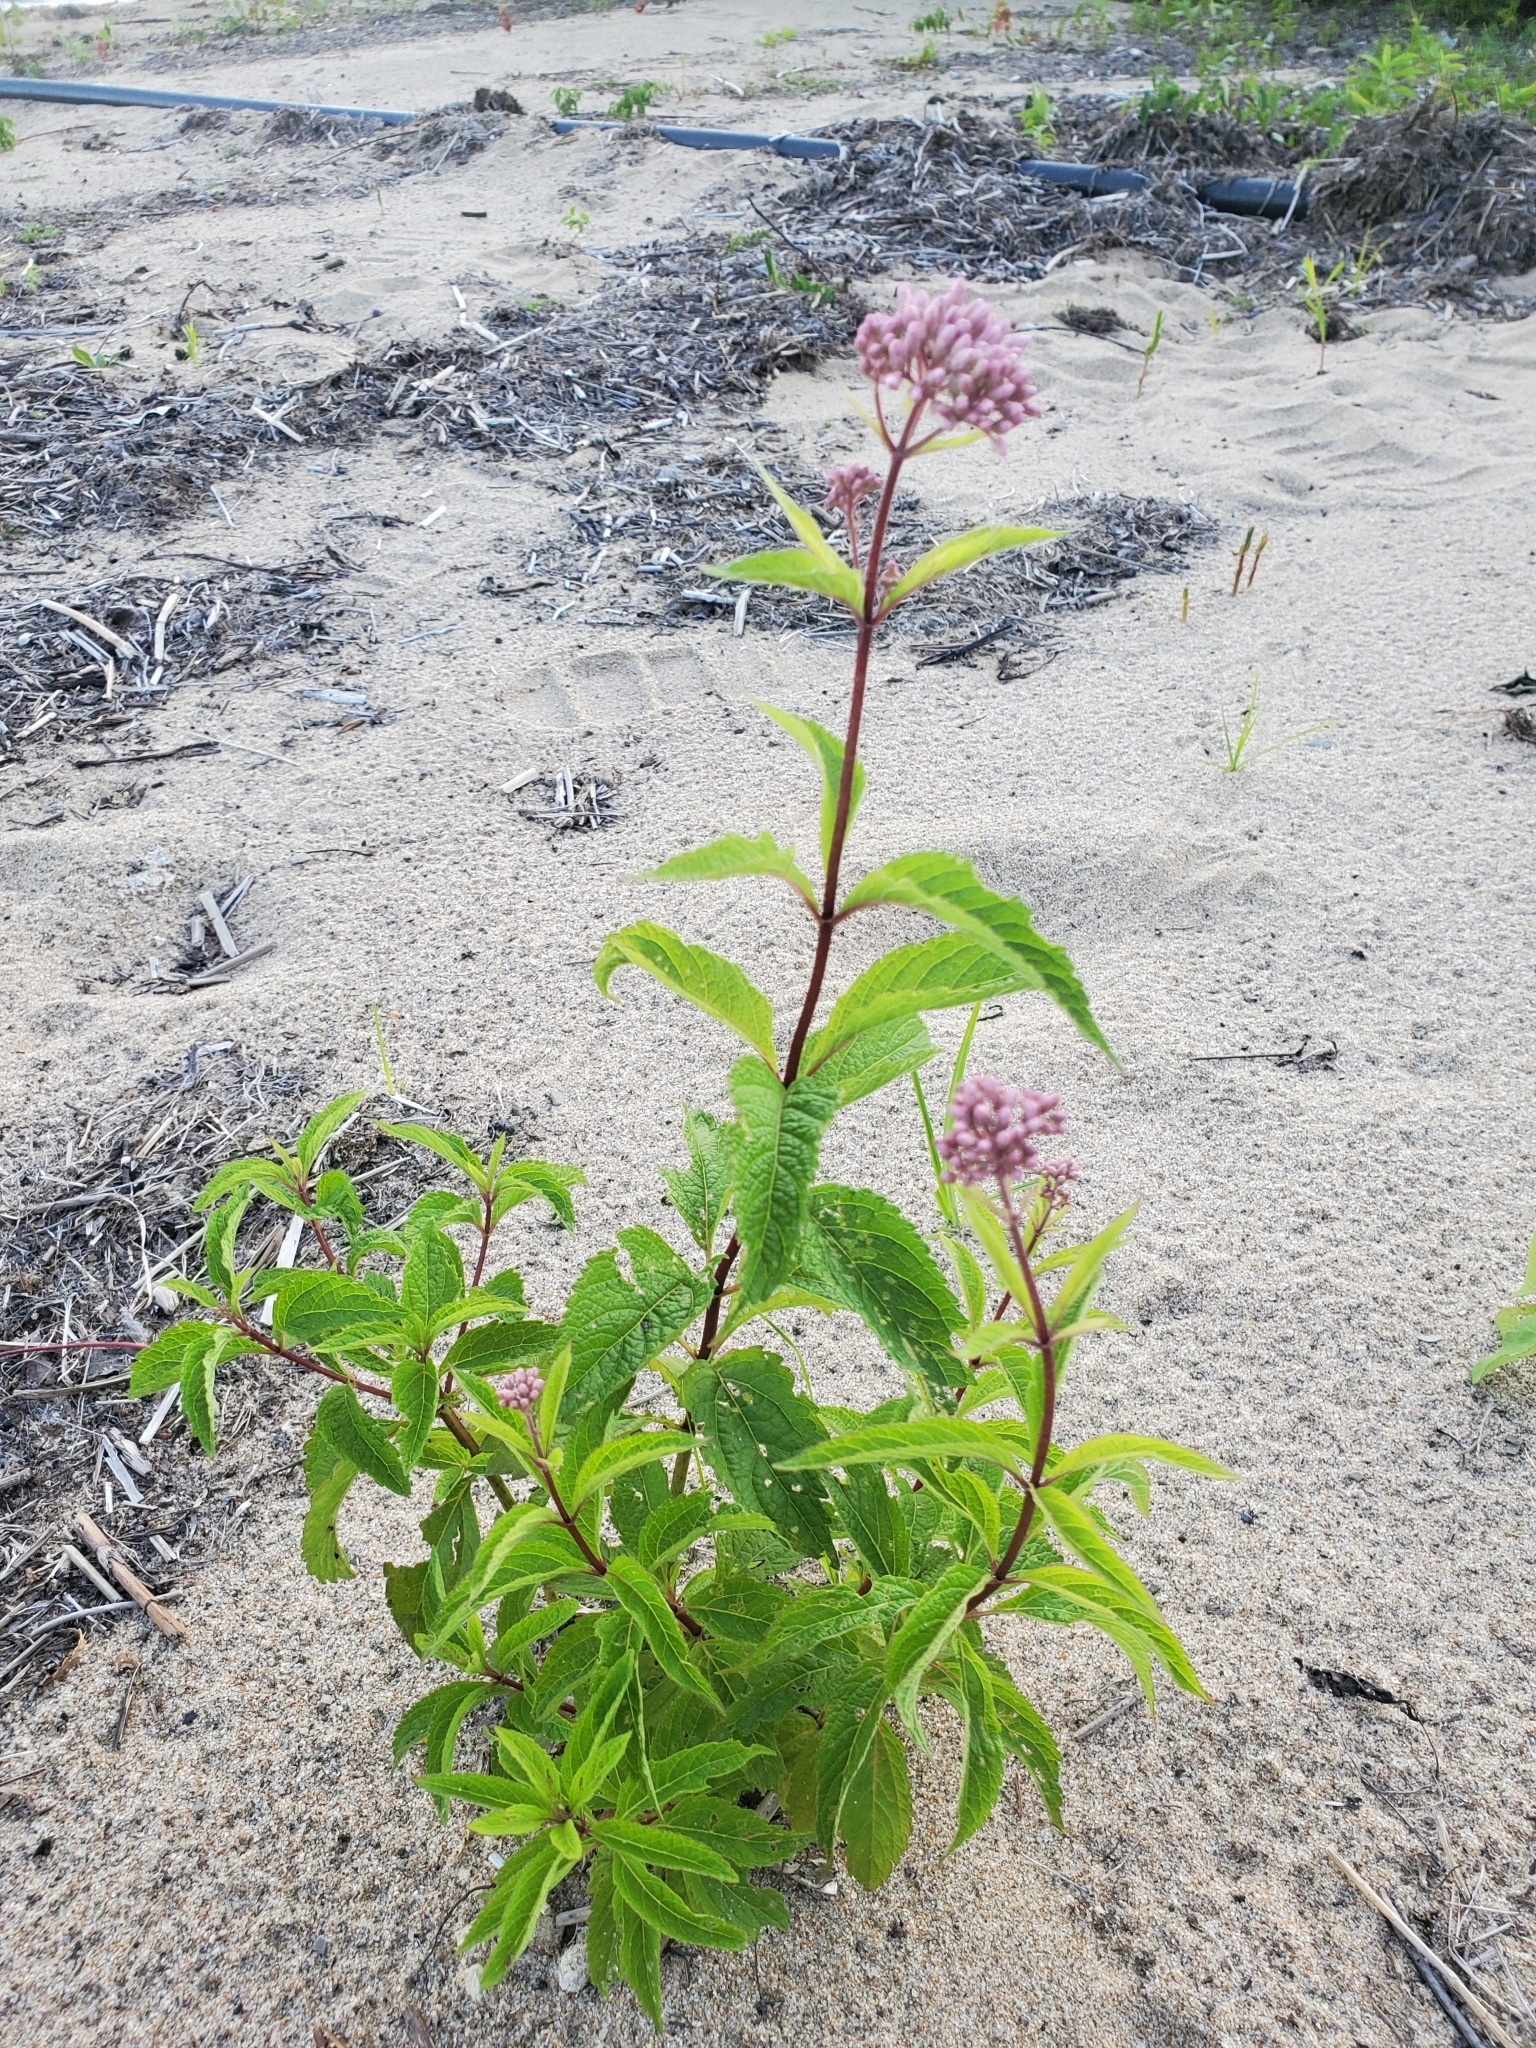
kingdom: Plantae
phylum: Tracheophyta
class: Magnoliopsida
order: Asterales
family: Asteraceae
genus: Eutrochium
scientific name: Eutrochium maculatum
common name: Spotted joe pye weed
